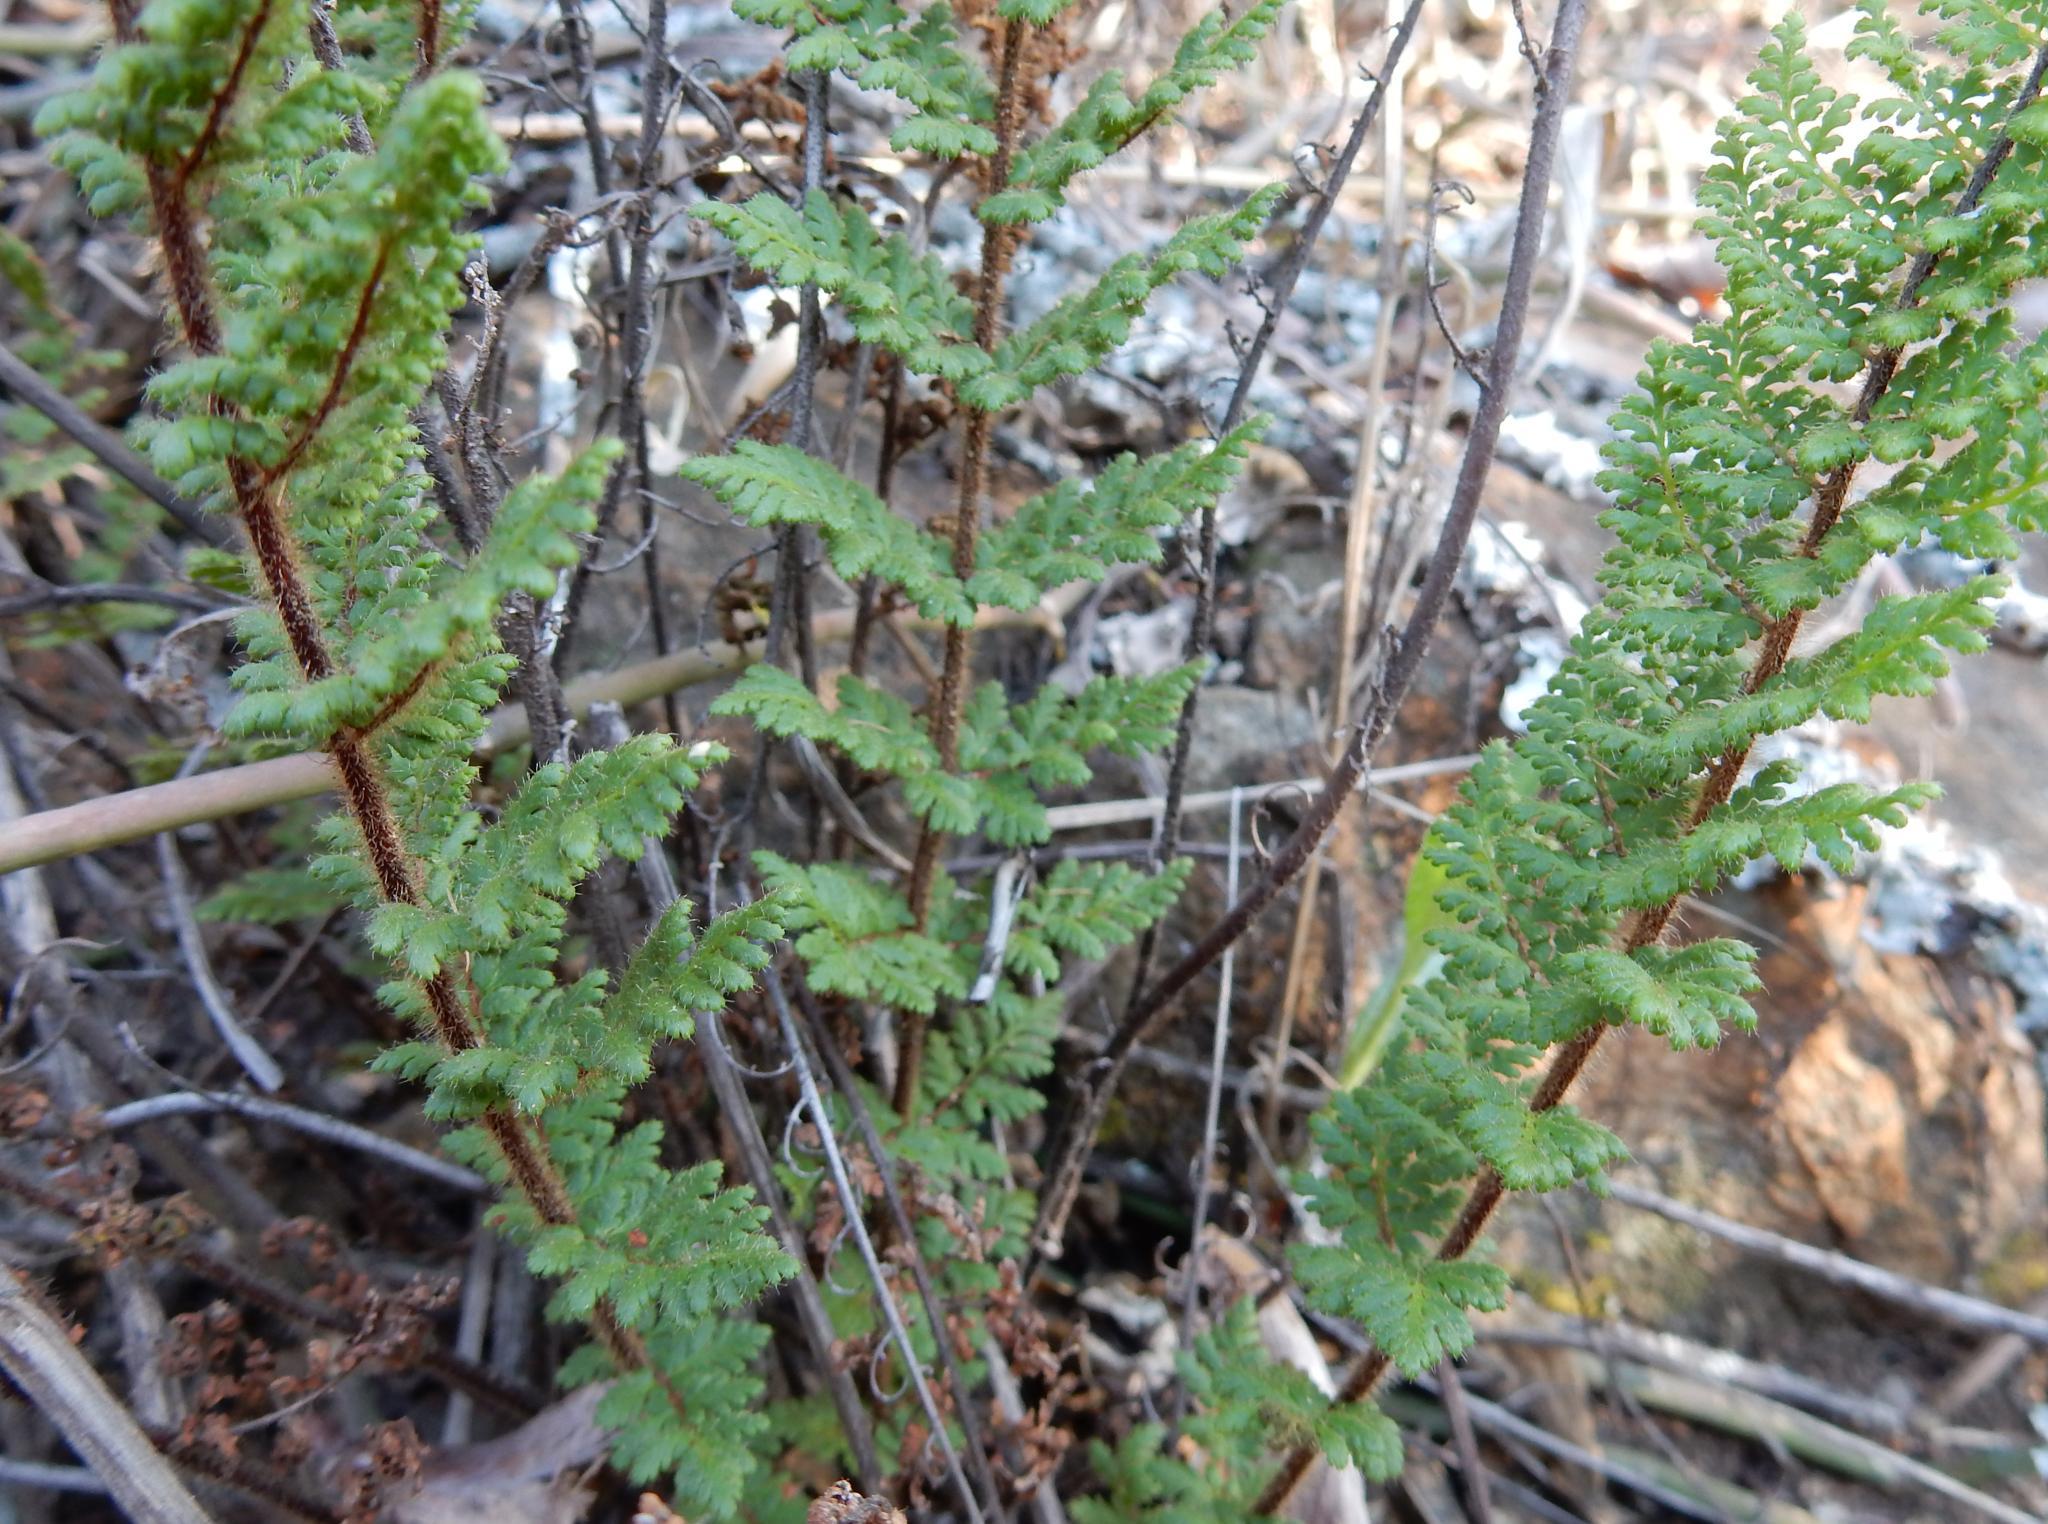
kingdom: Plantae
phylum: Tracheophyta
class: Polypodiopsida
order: Polypodiales
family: Pteridaceae
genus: Cheilanthes
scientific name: Cheilanthes hirta
